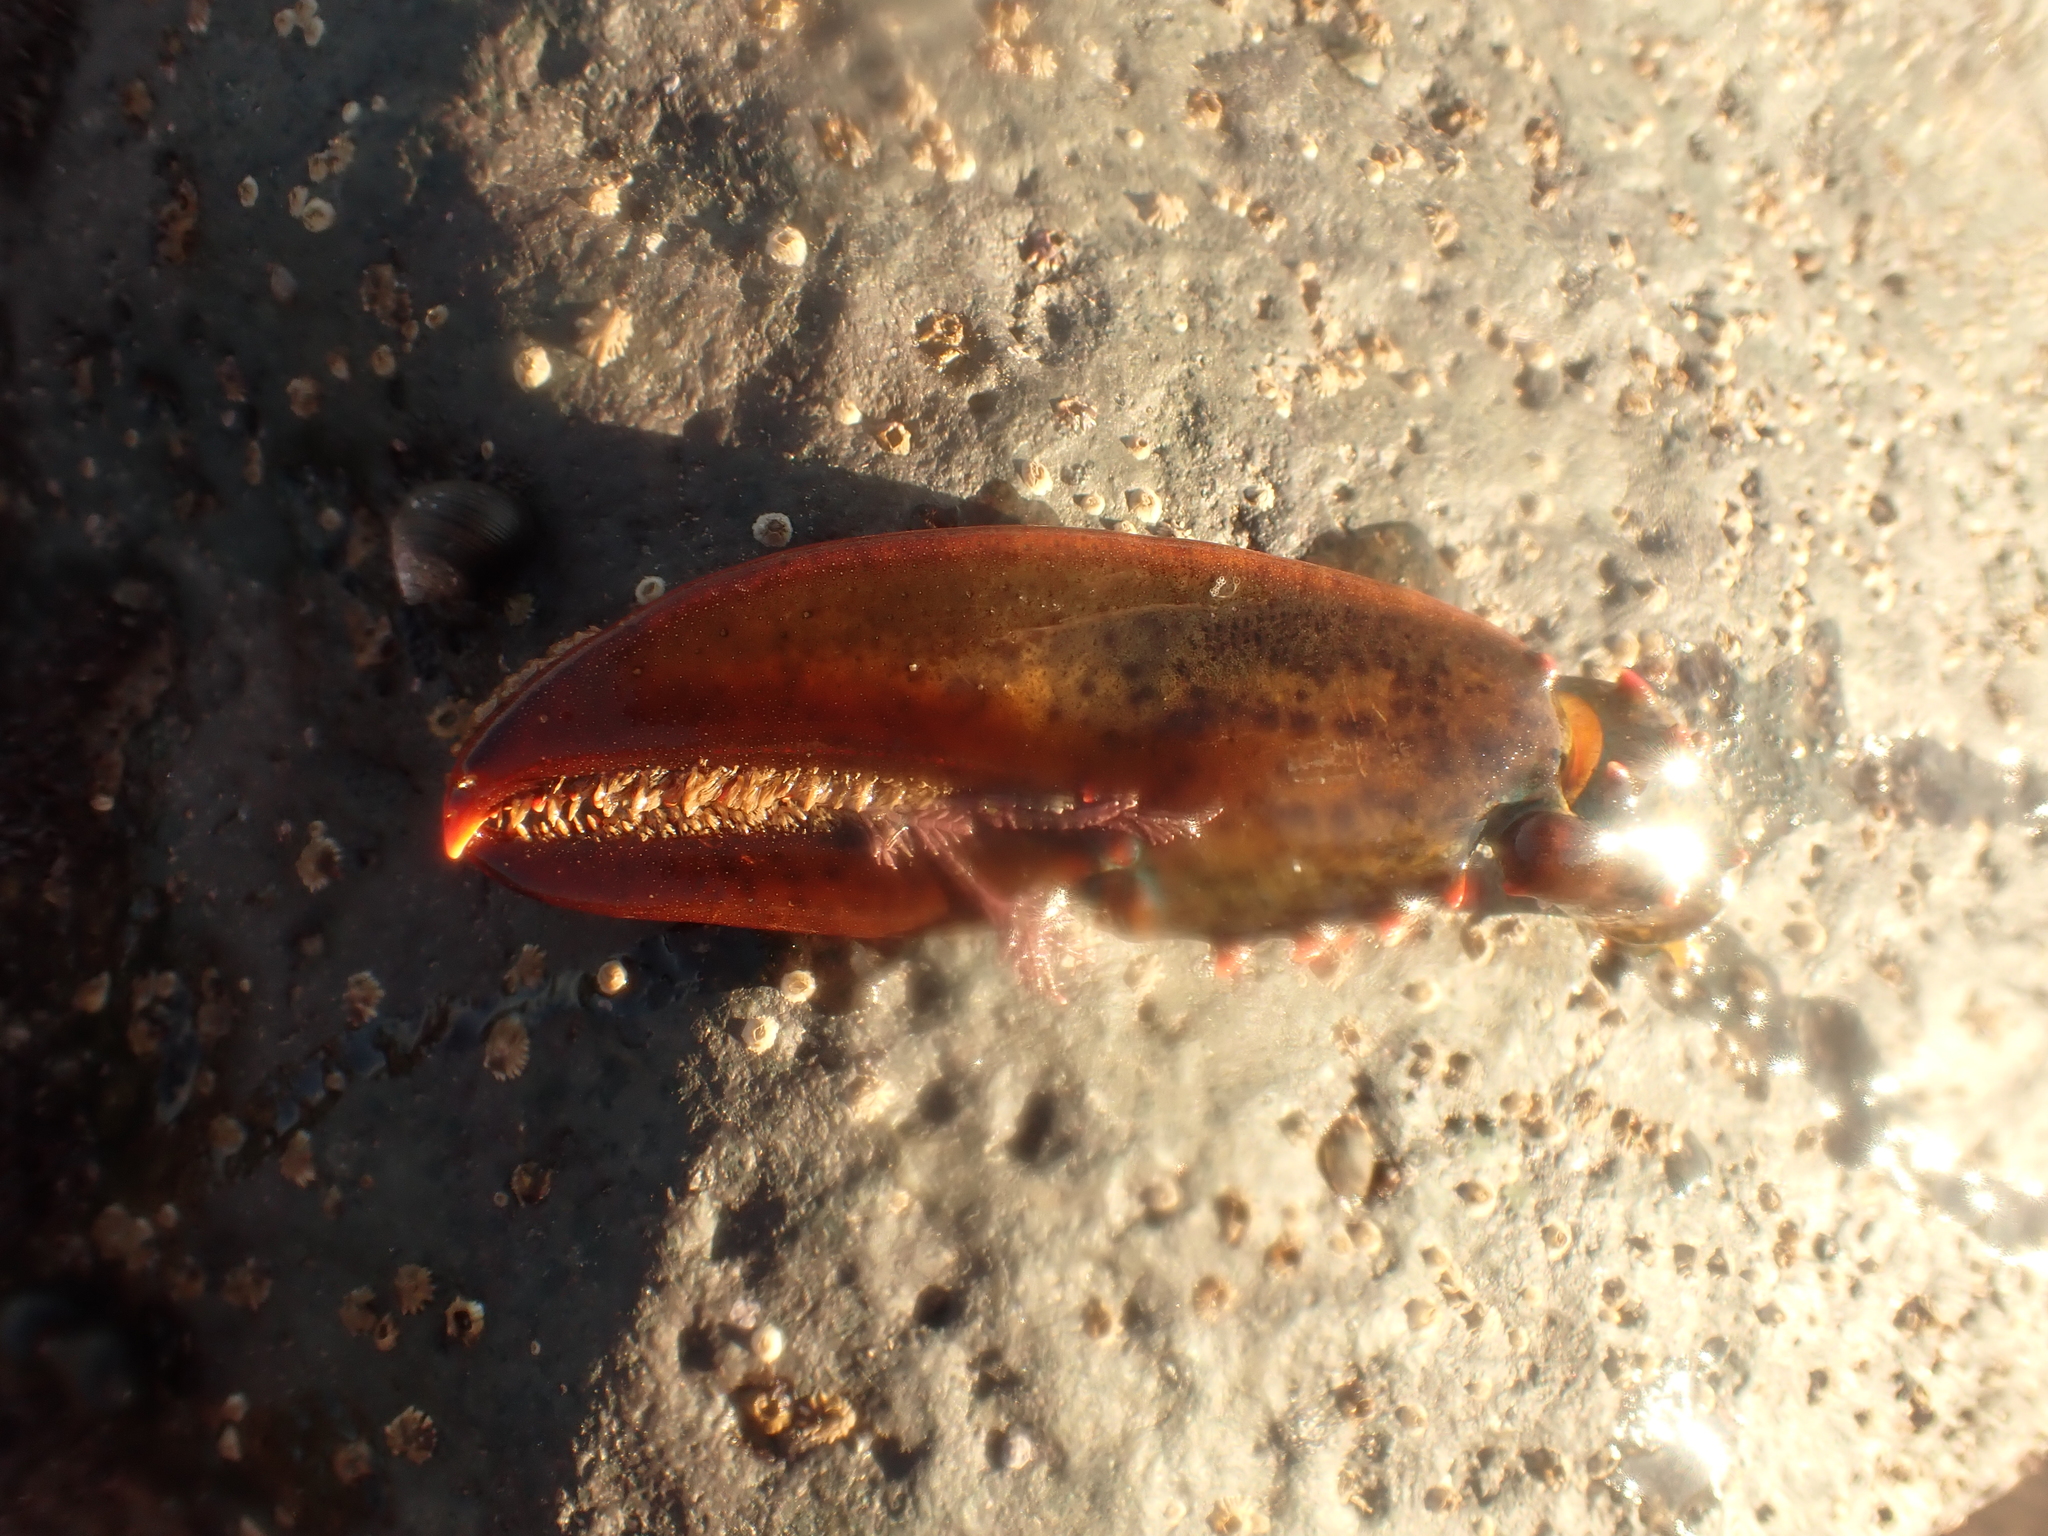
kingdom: Animalia
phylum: Arthropoda
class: Malacostraca
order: Decapoda
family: Nephropidae
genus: Homarus
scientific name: Homarus americanus
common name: American lobster
